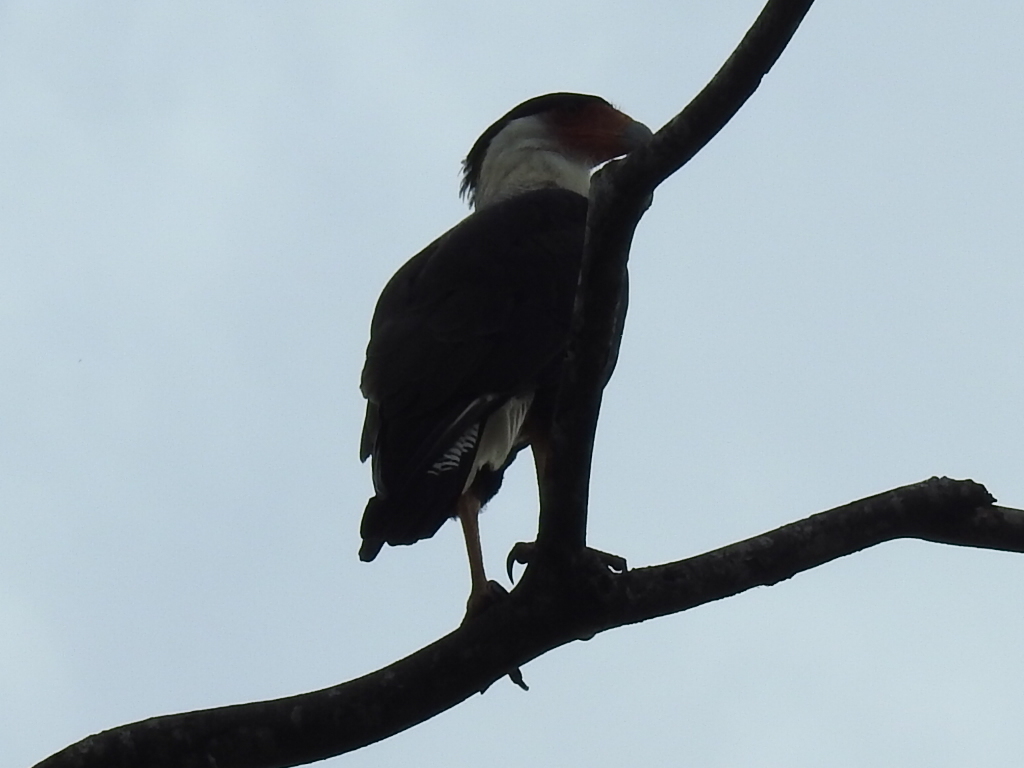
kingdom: Animalia
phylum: Chordata
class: Aves
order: Falconiformes
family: Falconidae
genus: Caracara
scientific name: Caracara plancus
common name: Southern caracara
